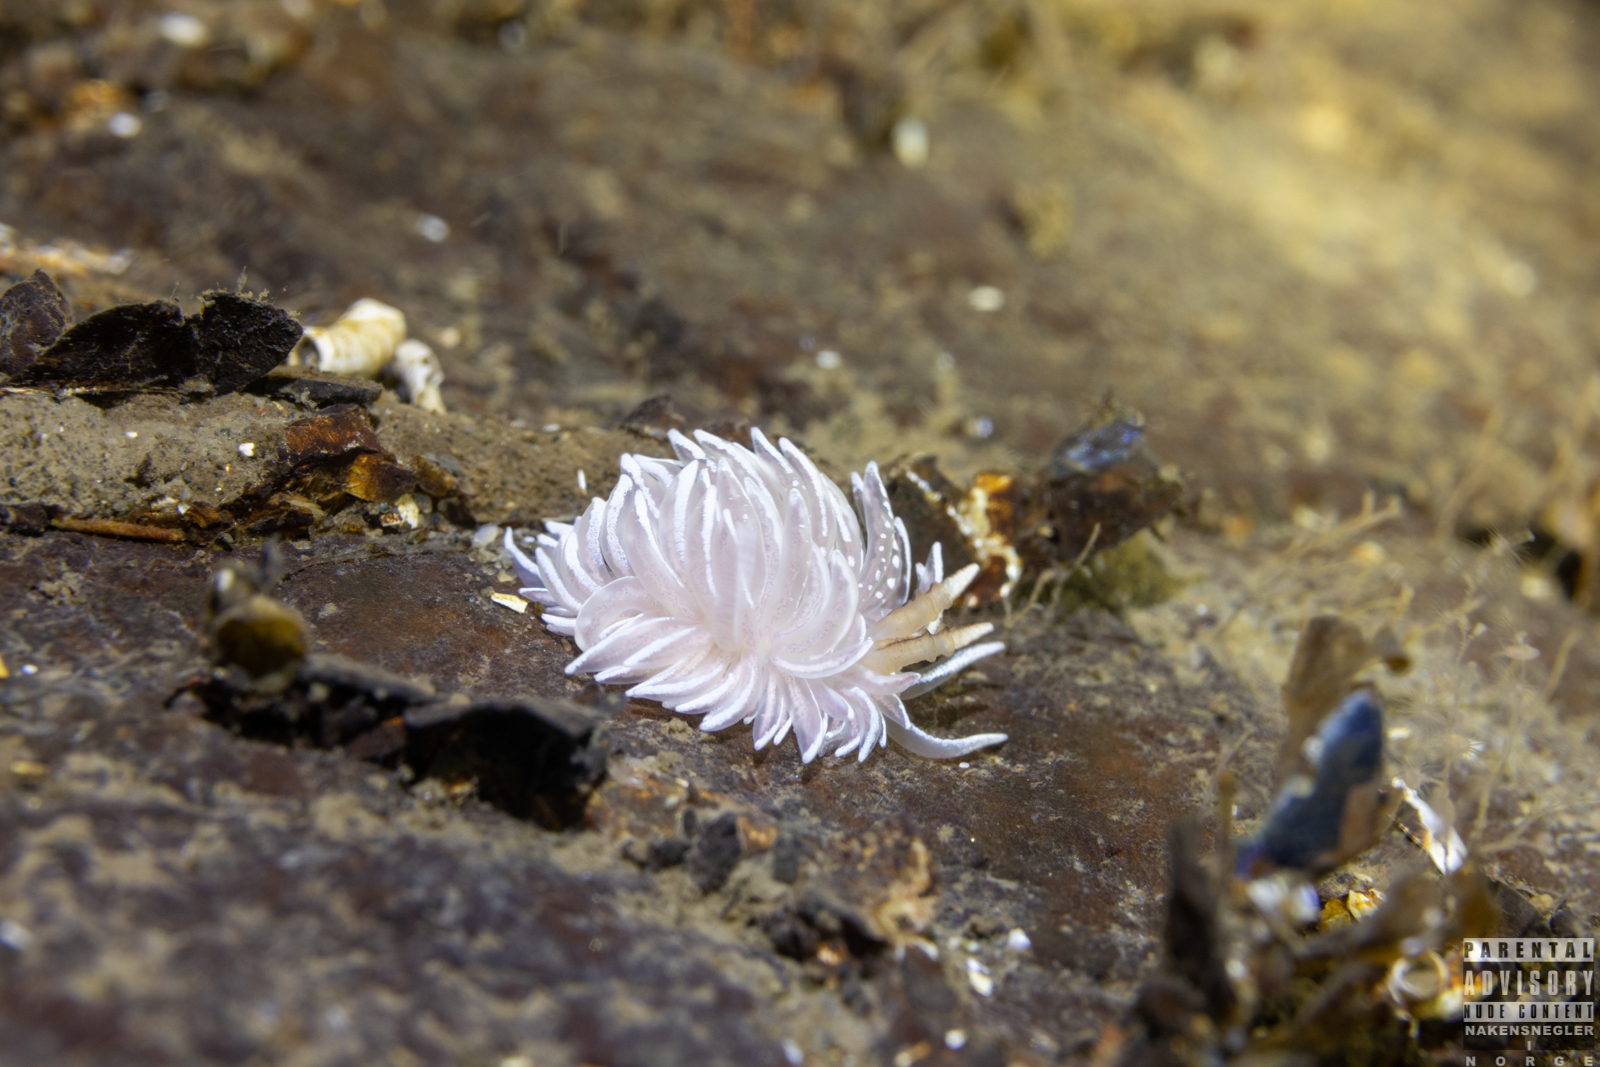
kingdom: Animalia
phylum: Mollusca
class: Gastropoda
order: Nudibranchia
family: Facelinidae
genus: Favorinus
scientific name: Favorinus blianus
